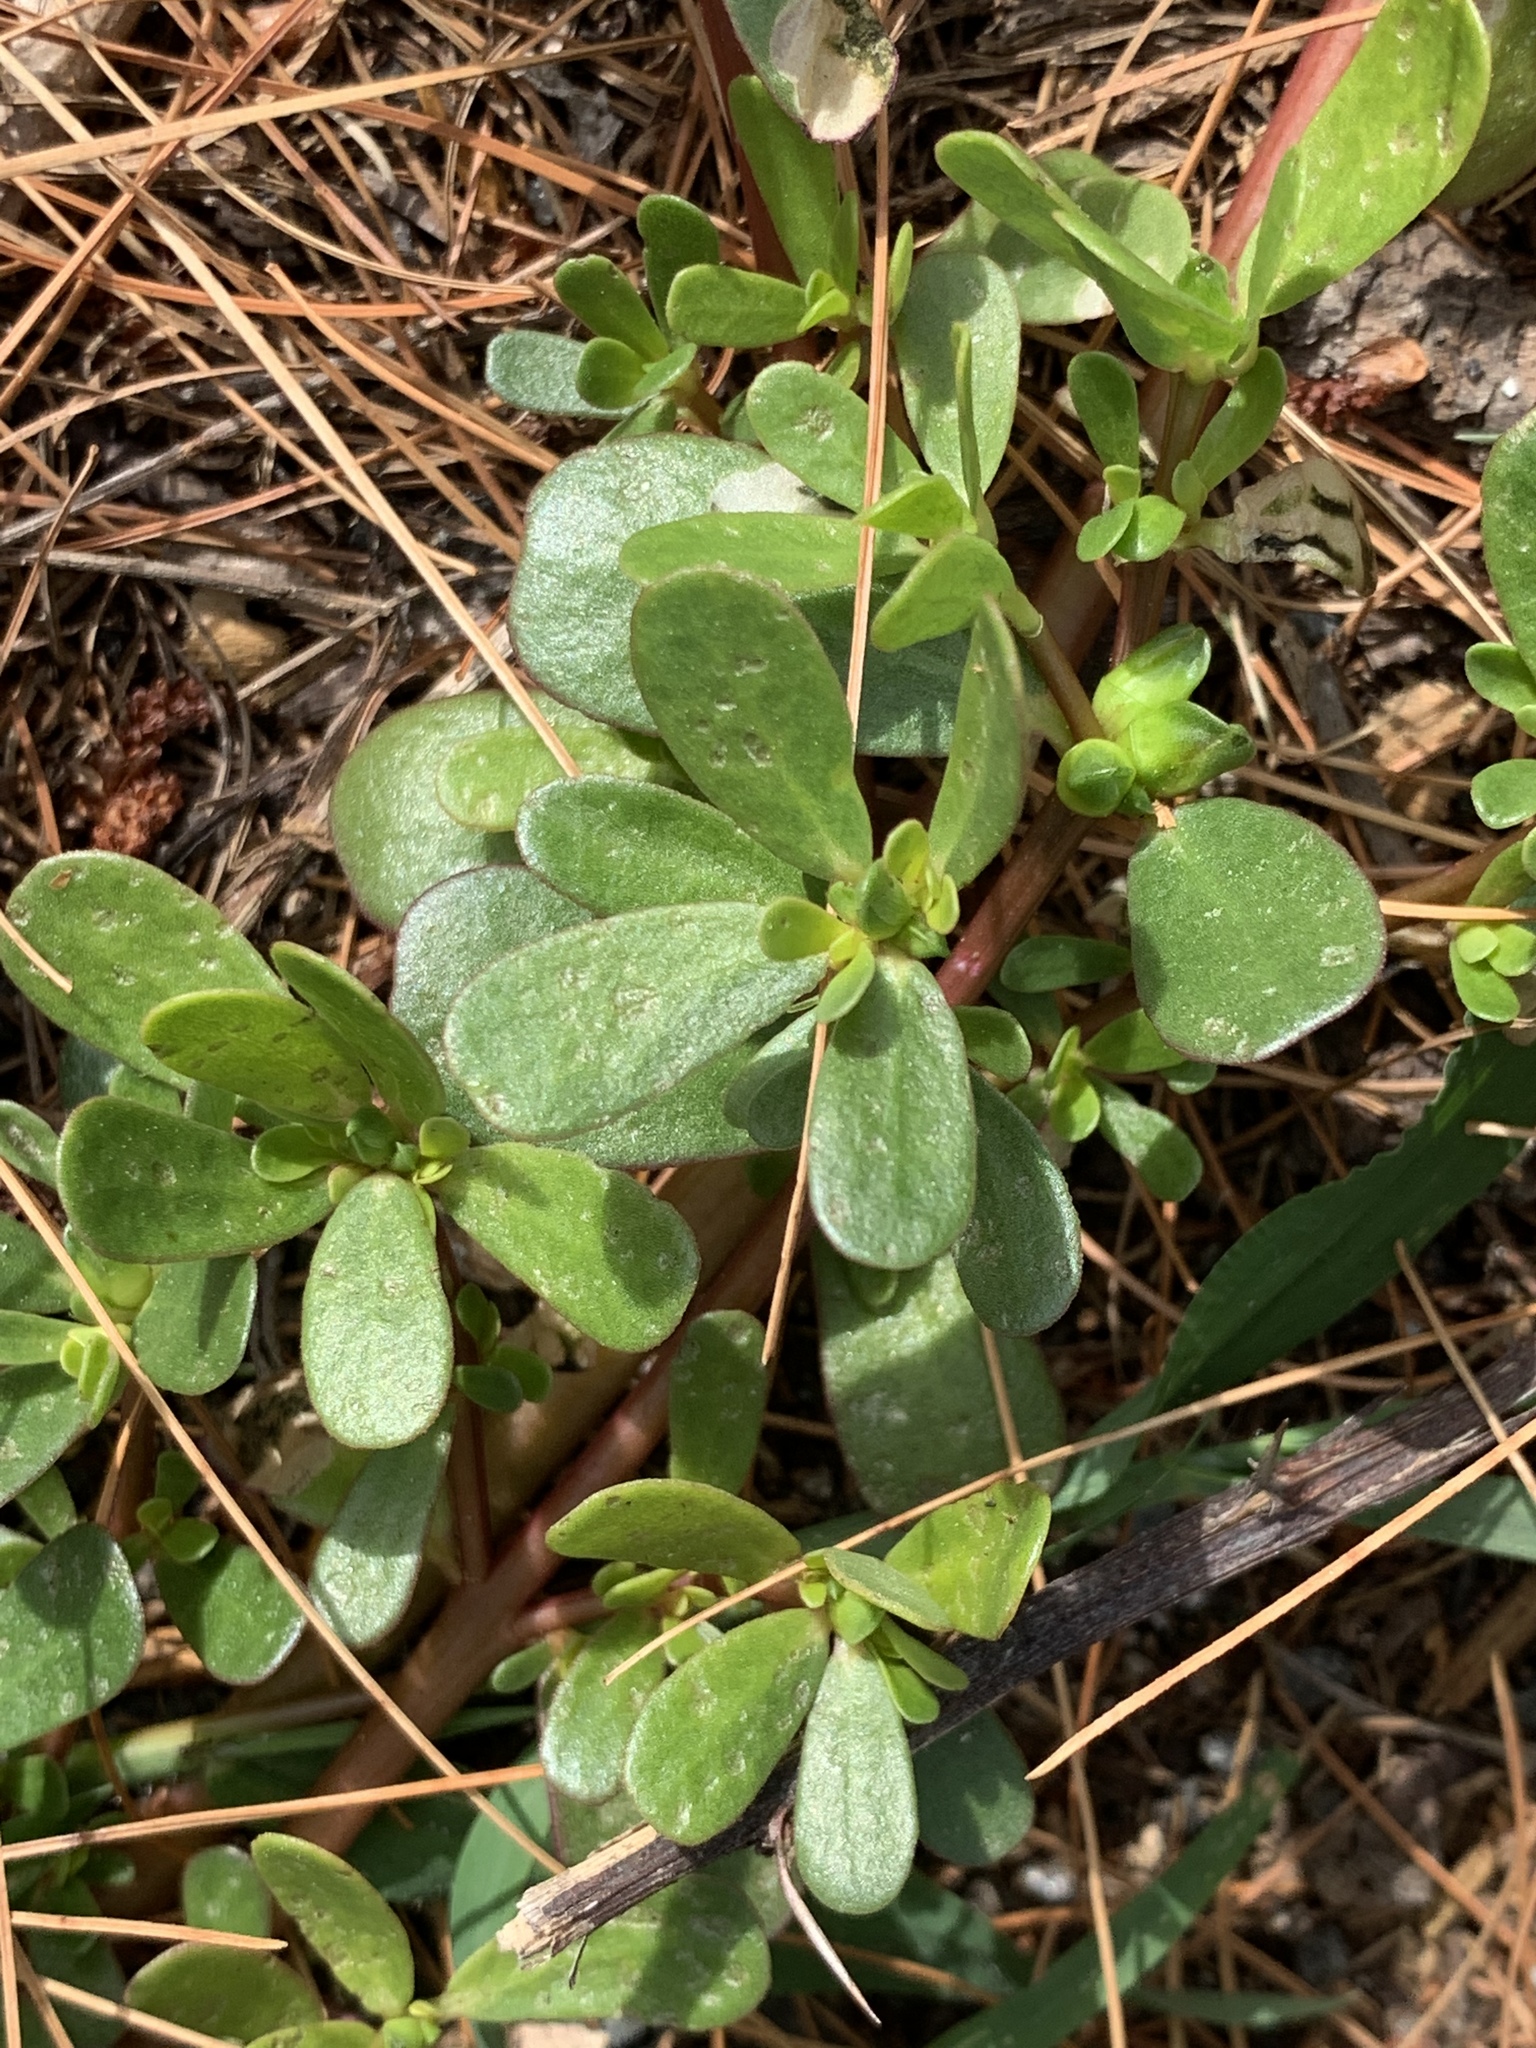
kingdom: Plantae
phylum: Tracheophyta
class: Magnoliopsida
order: Caryophyllales
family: Portulacaceae
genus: Portulaca
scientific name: Portulaca oleracea
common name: Common purslane
